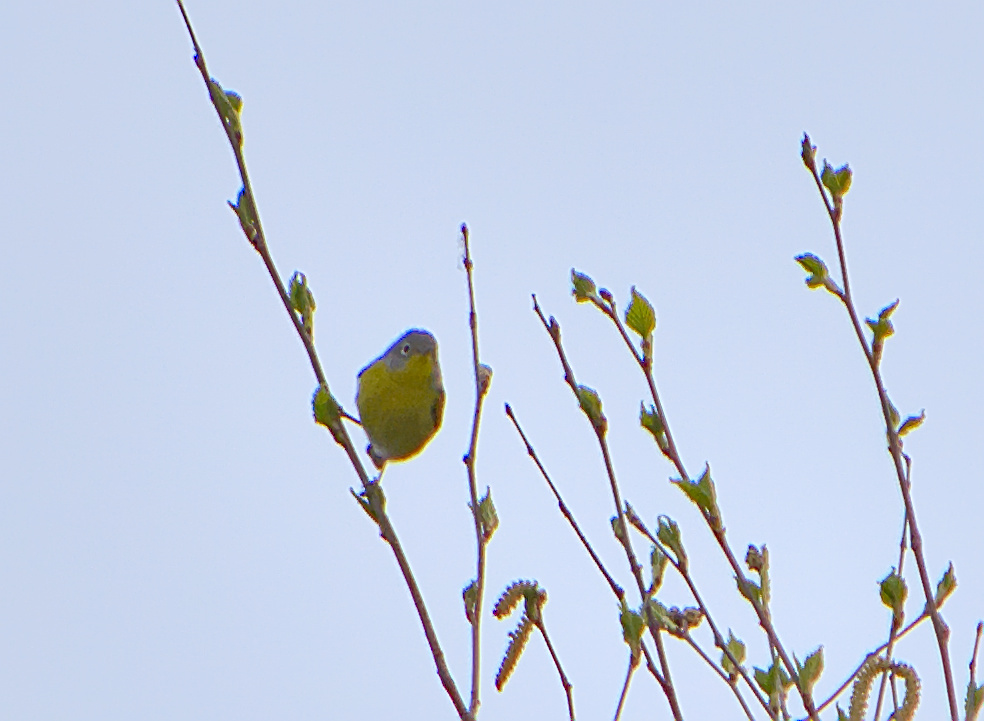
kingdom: Animalia
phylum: Chordata
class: Aves
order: Passeriformes
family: Parulidae
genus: Leiothlypis
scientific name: Leiothlypis ruficapilla
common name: Nashville warbler
